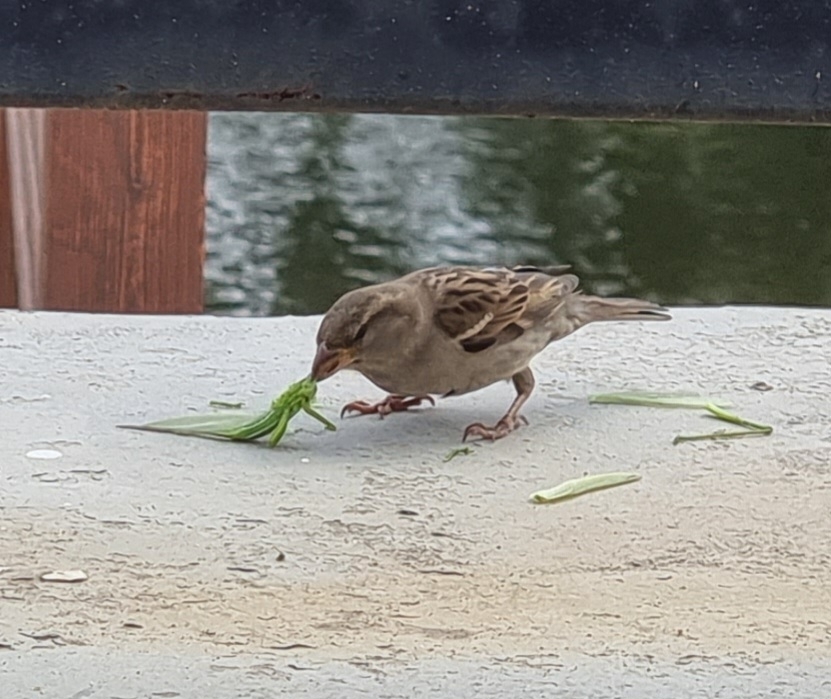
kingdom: Animalia
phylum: Chordata
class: Aves
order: Passeriformes
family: Passeridae
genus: Passer
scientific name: Passer domesticus
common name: House sparrow
